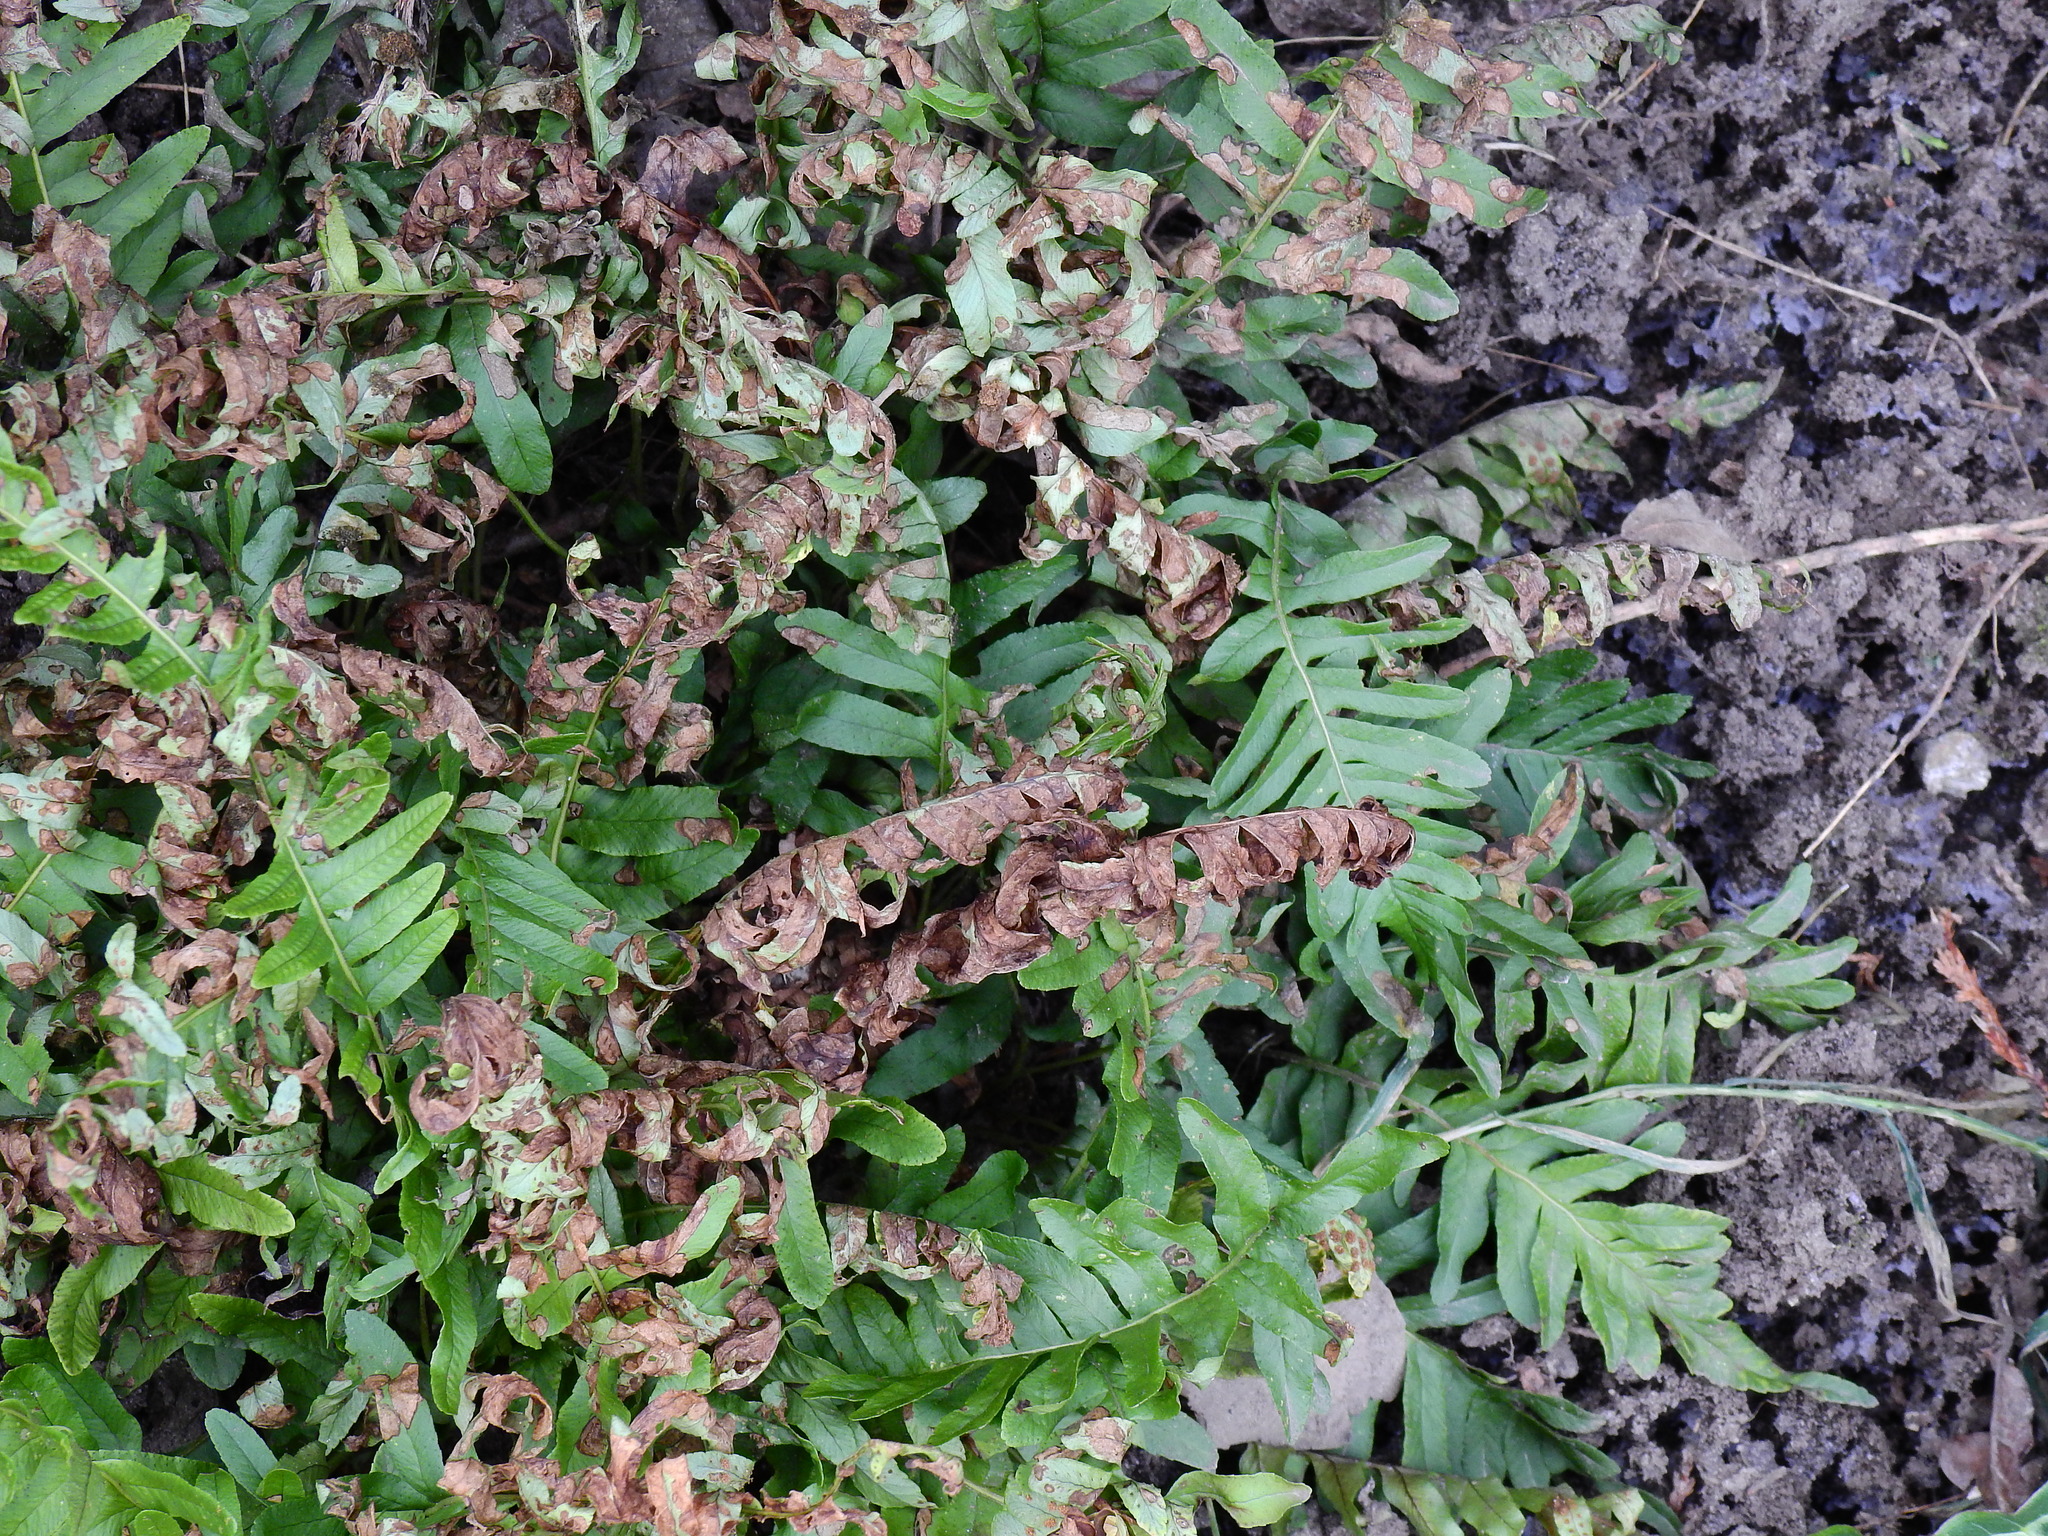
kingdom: Plantae
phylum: Tracheophyta
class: Polypodiopsida
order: Polypodiales
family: Polypodiaceae
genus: Polypodium
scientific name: Polypodium vulgare
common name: Common polypody
